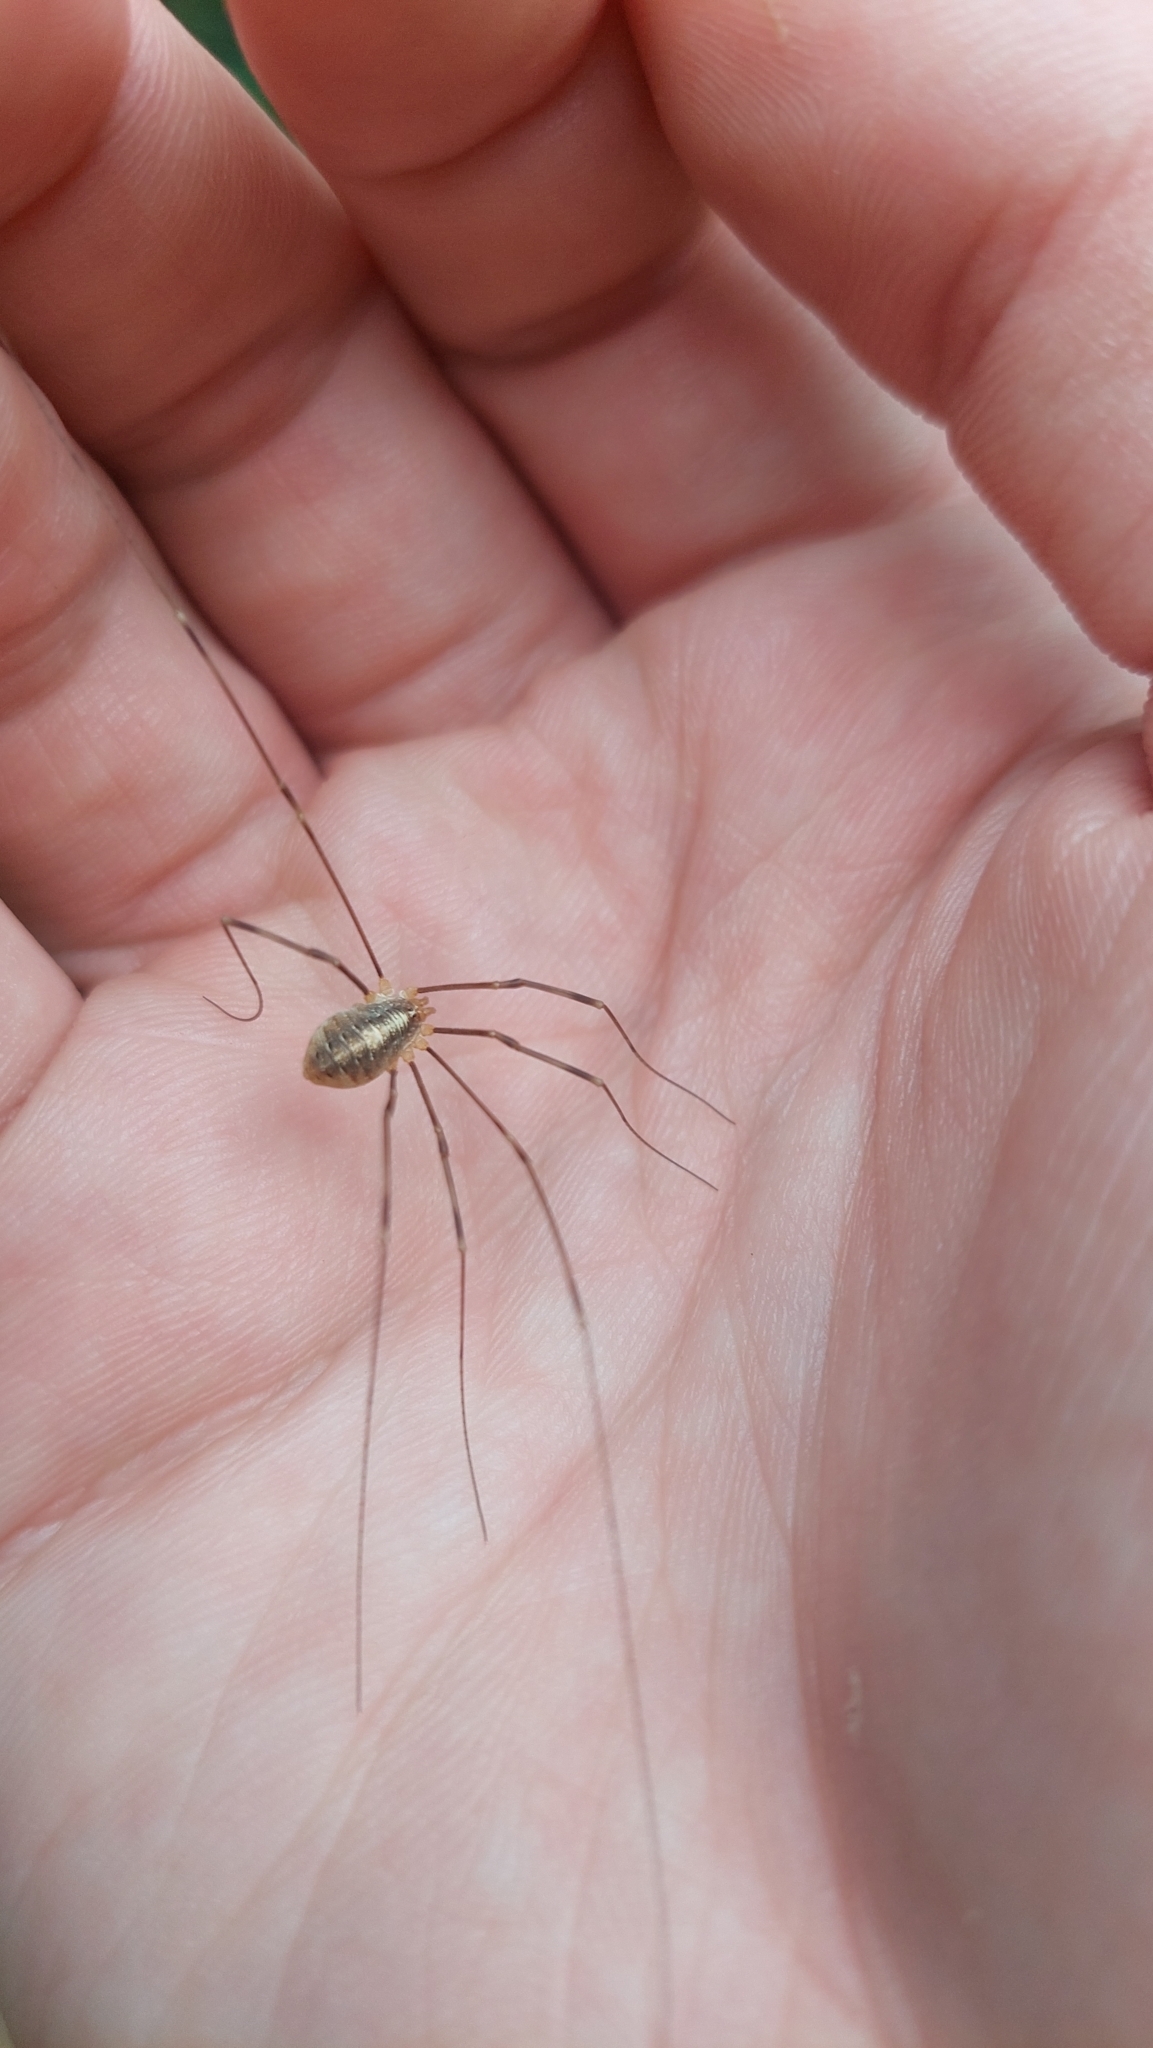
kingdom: Animalia
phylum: Arthropoda
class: Arachnida
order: Opiliones
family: Phalangiidae
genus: Opilio
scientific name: Opilio canestrinii
